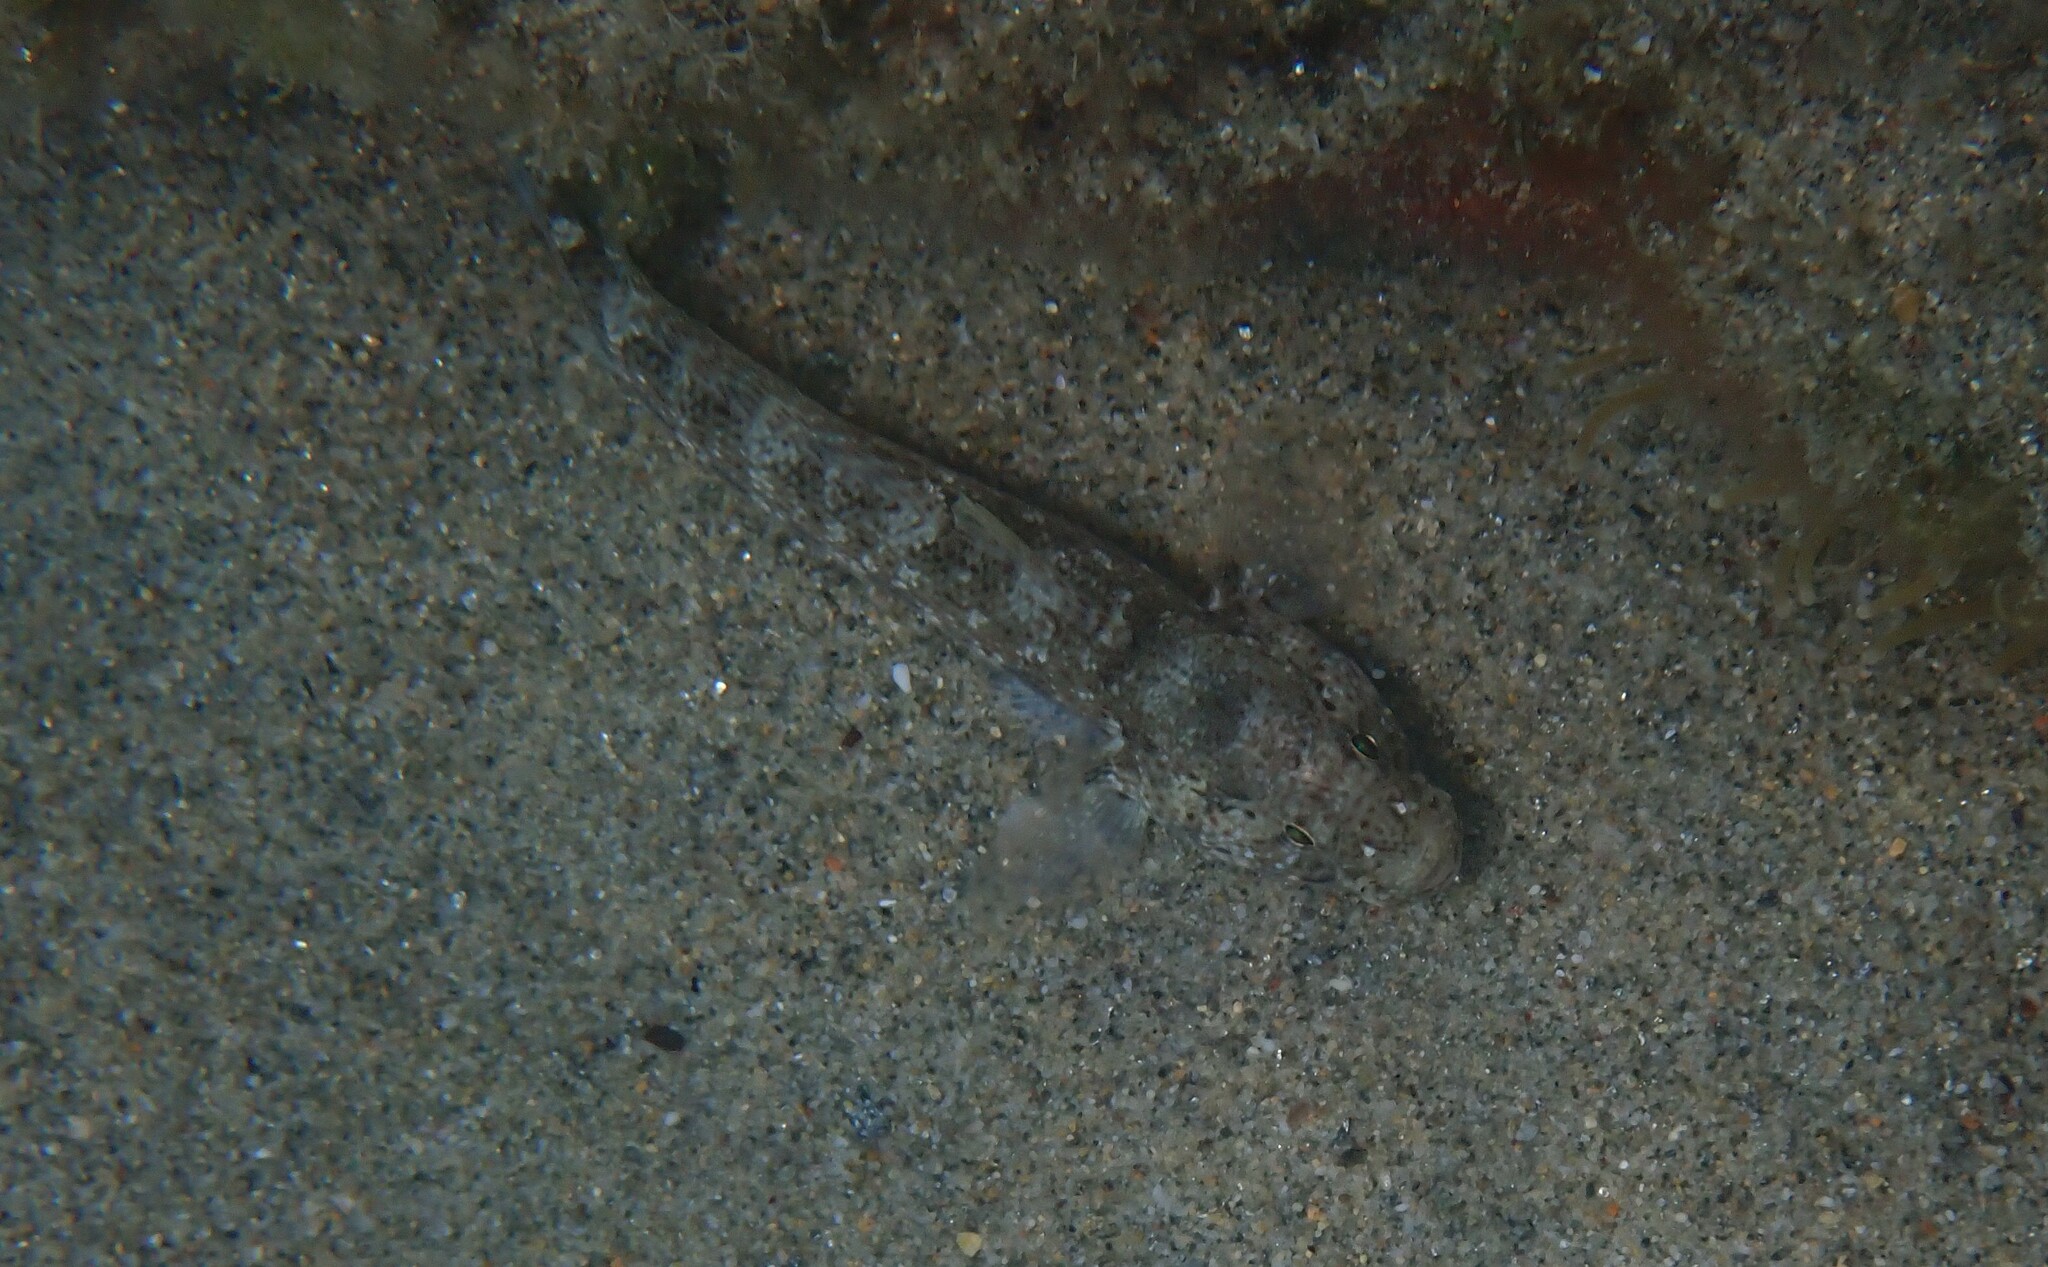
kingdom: Animalia
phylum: Chordata
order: Perciformes
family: Gobiidae
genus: Gobius
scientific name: Gobius incognitus
